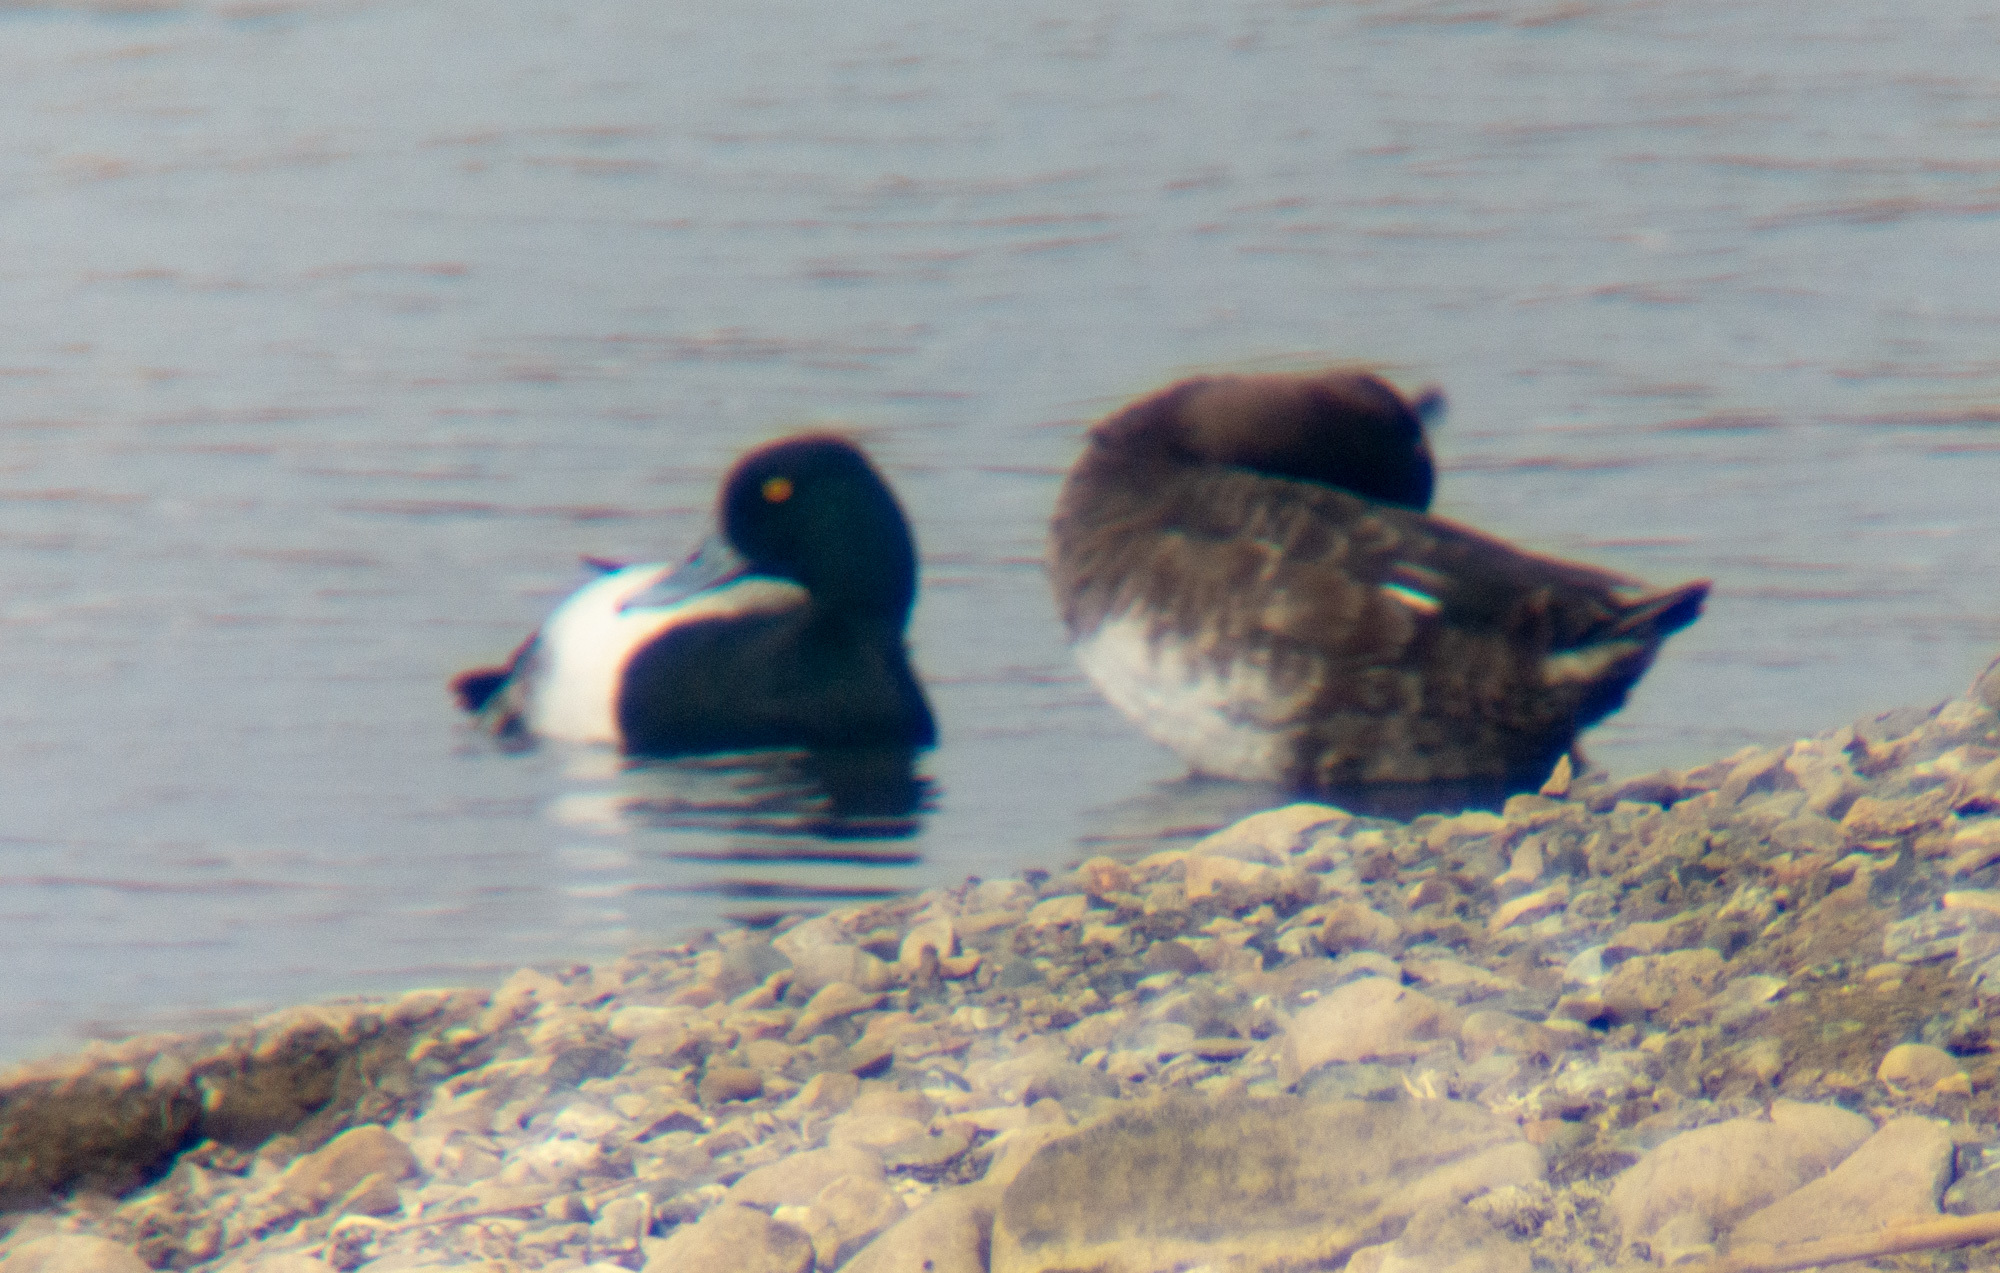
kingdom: Animalia
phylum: Chordata
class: Aves
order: Anseriformes
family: Anatidae
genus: Aythya
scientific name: Aythya affinis
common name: Lesser scaup
